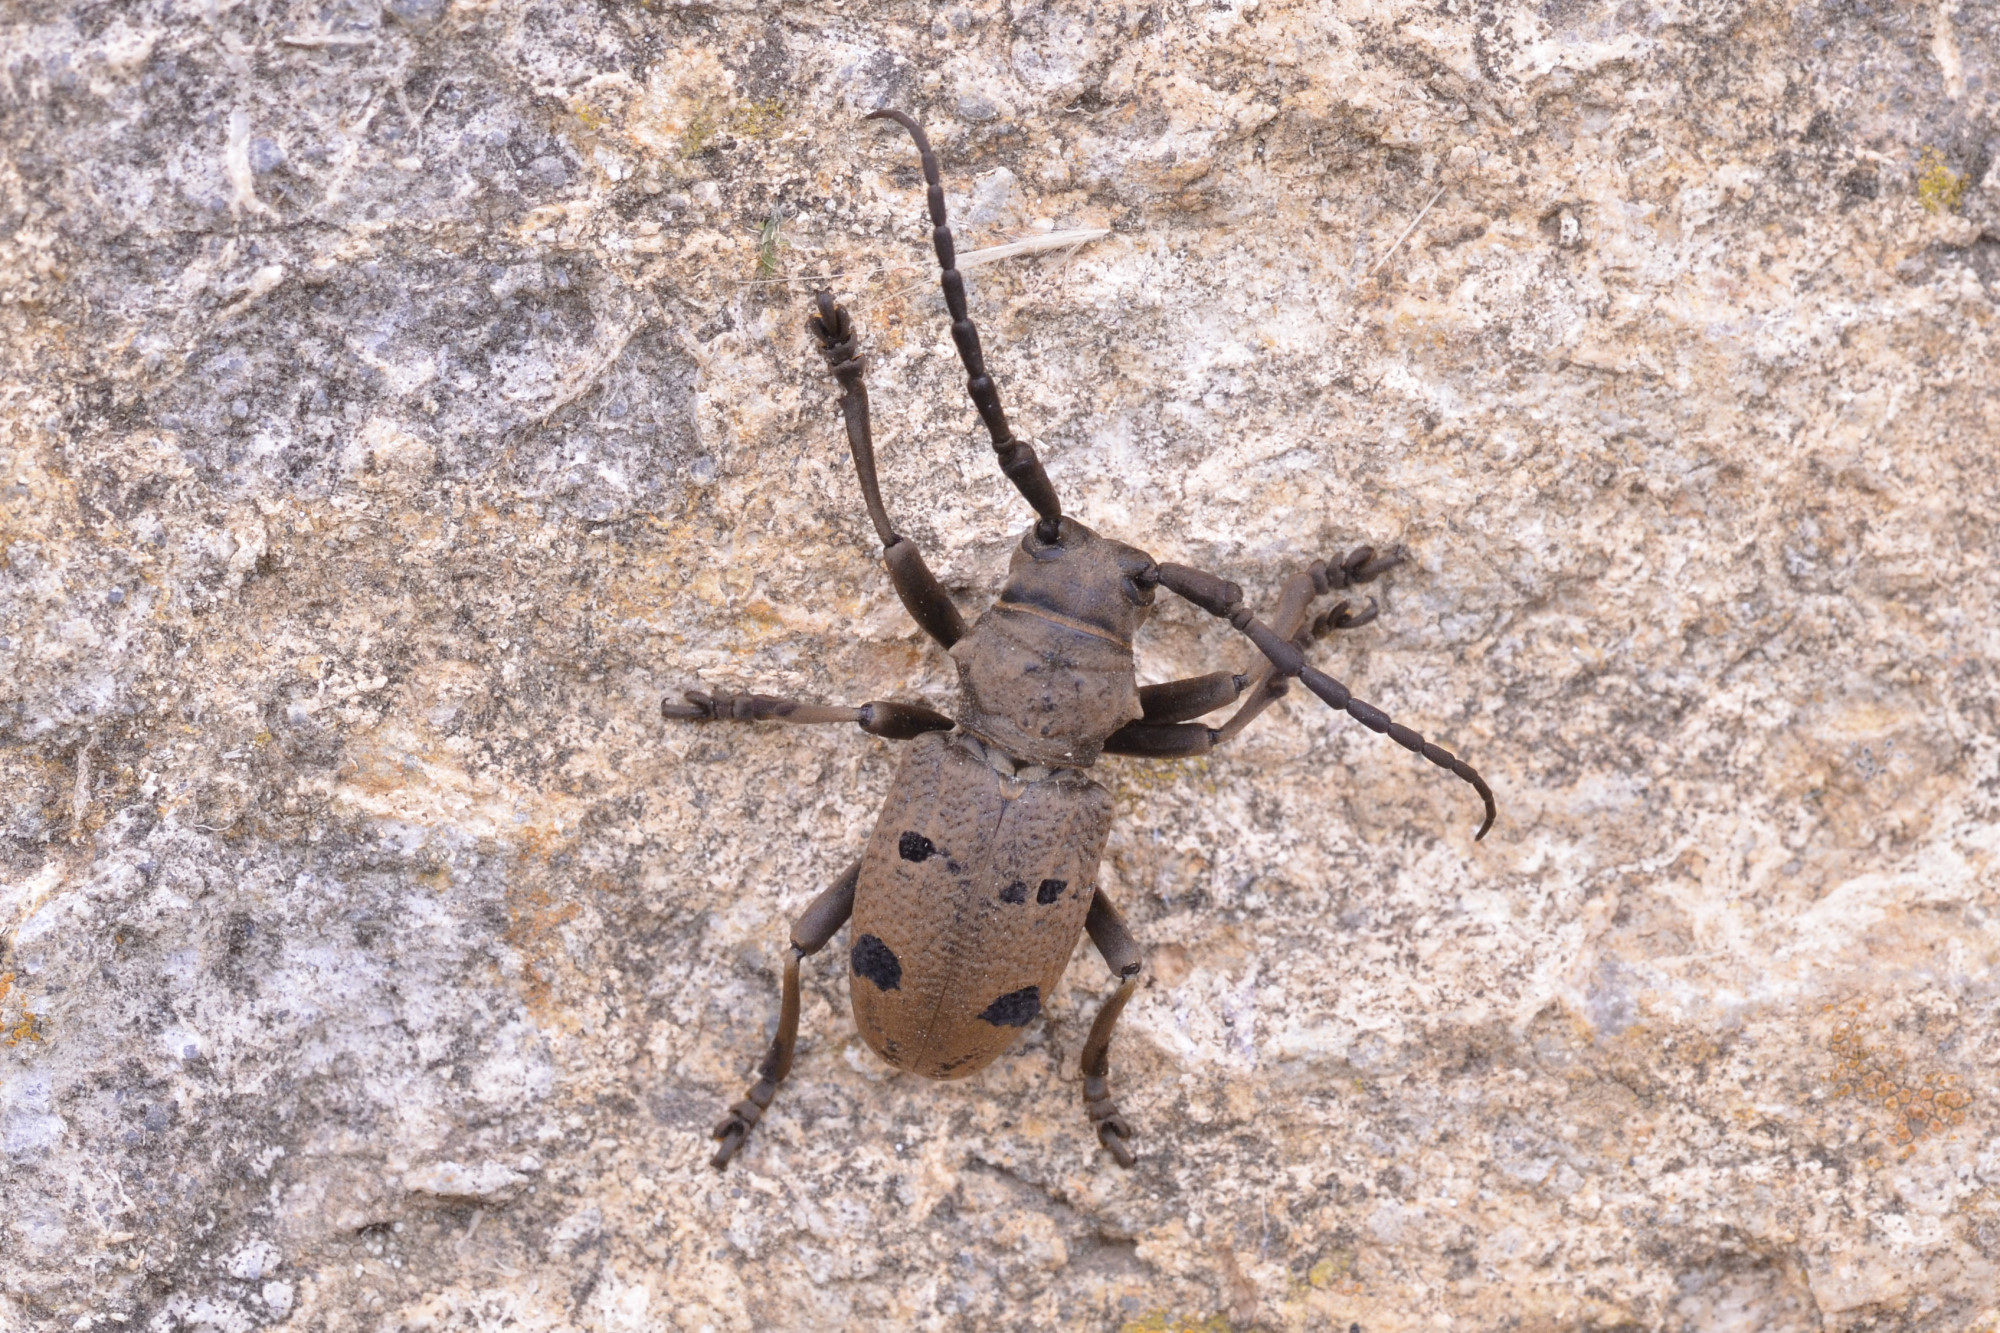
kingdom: Animalia
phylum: Arthropoda
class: Insecta
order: Coleoptera
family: Cerambycidae
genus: Herophila
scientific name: Herophila tristis
